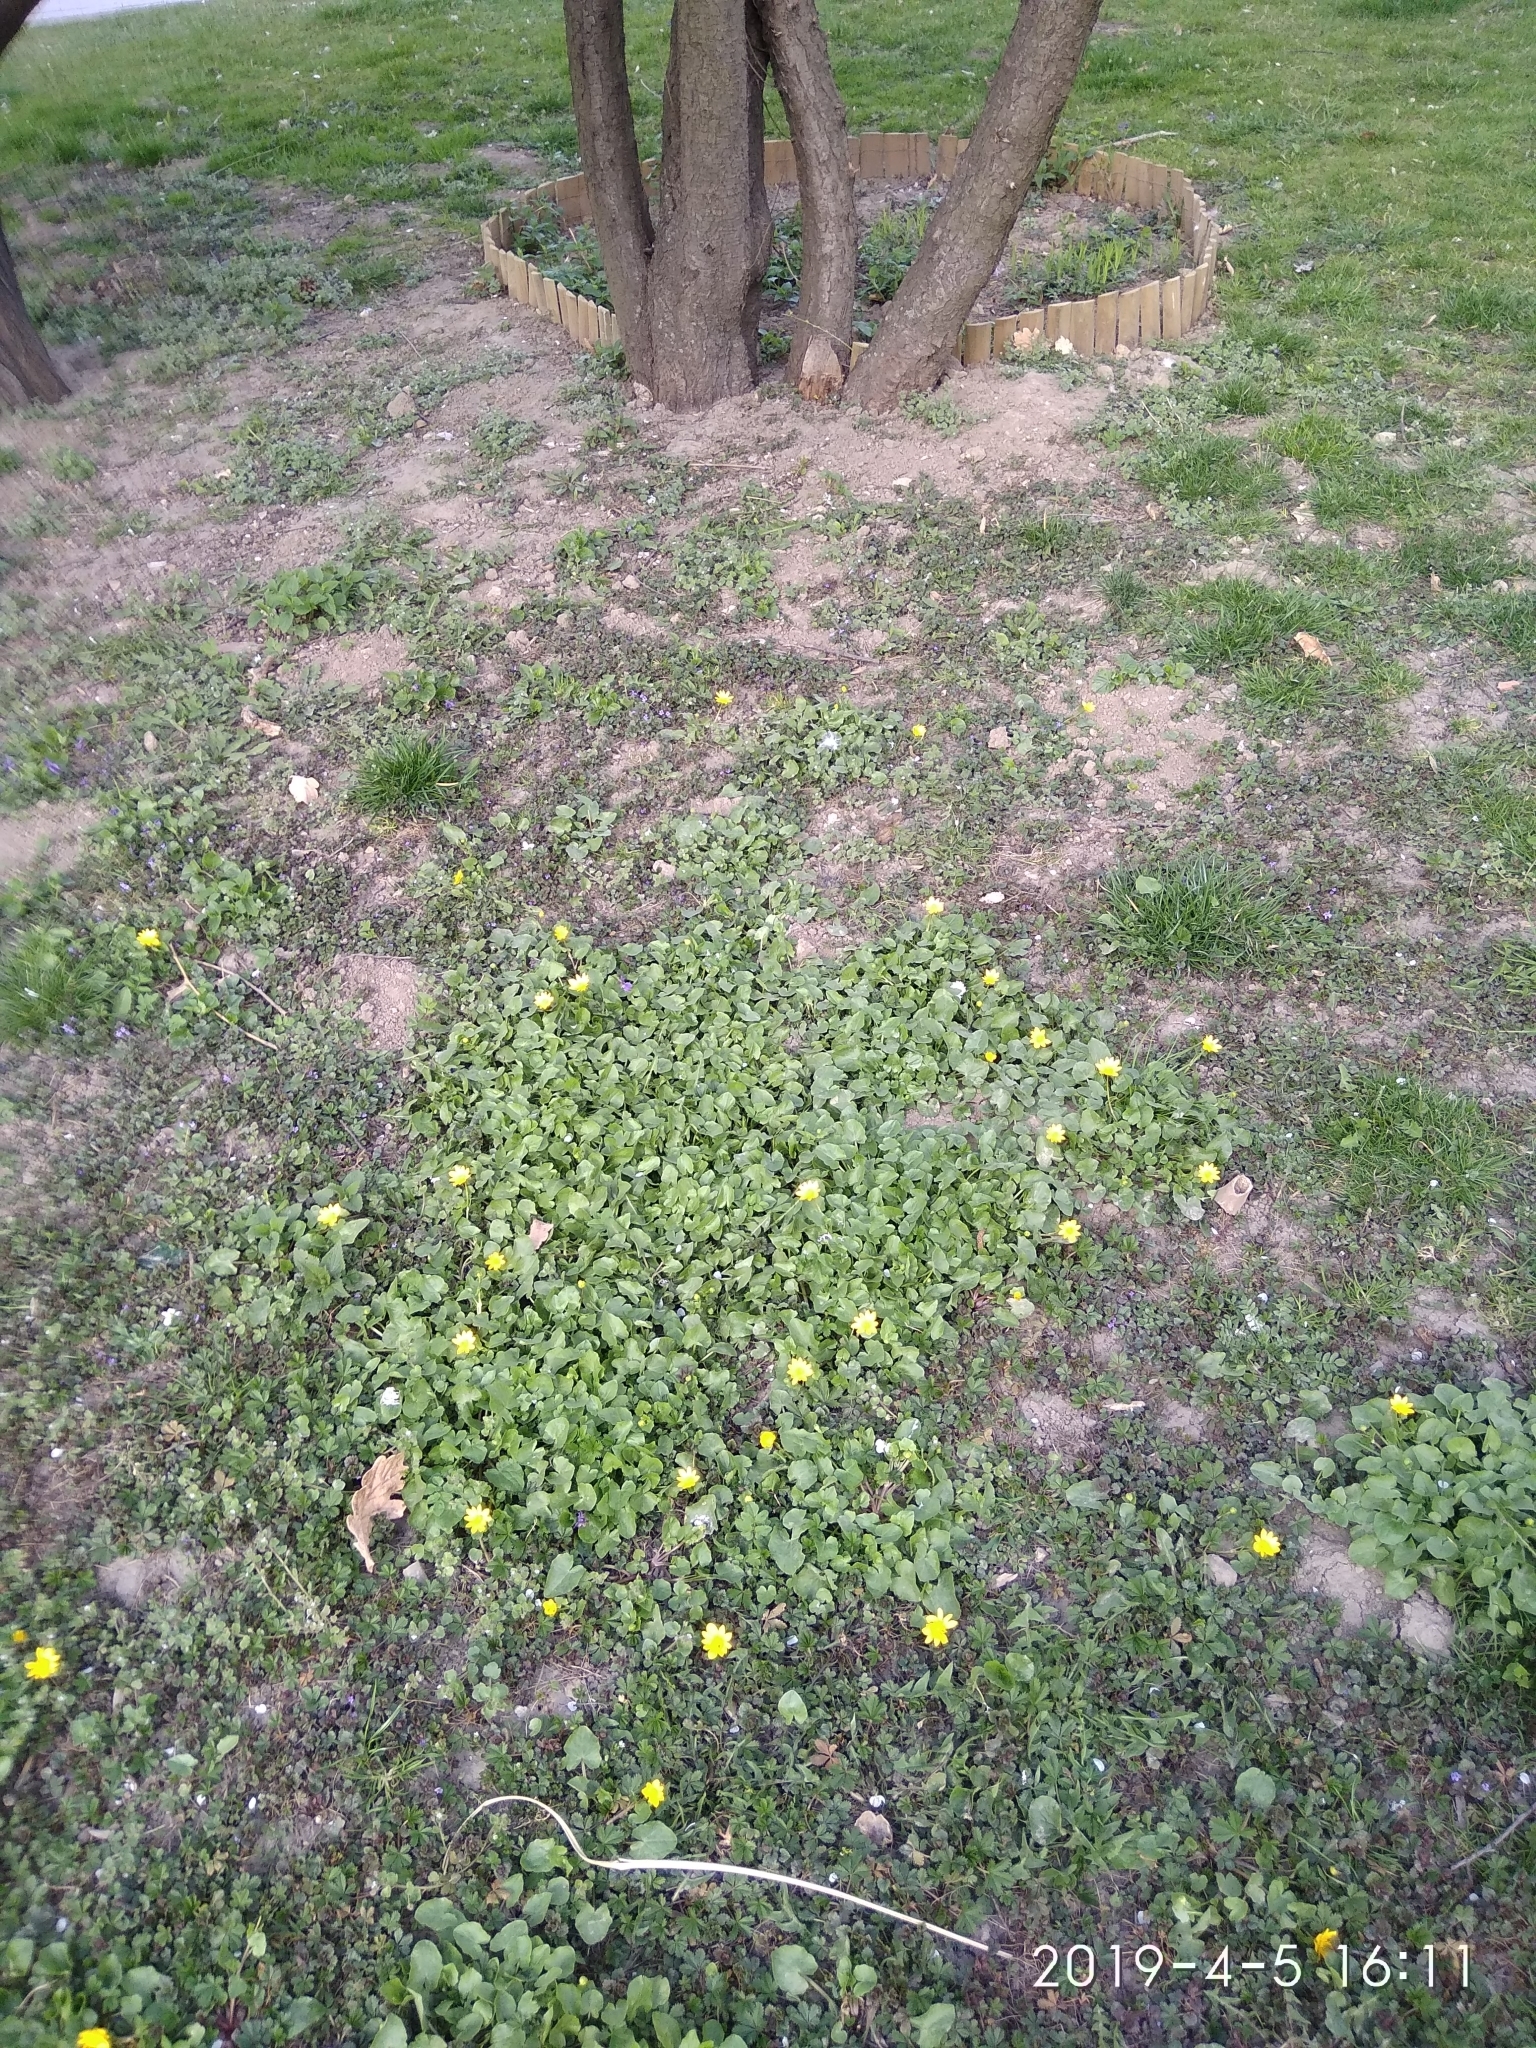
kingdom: Plantae
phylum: Tracheophyta
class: Magnoliopsida
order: Ranunculales
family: Ranunculaceae
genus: Ficaria
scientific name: Ficaria verna
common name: Lesser celandine
